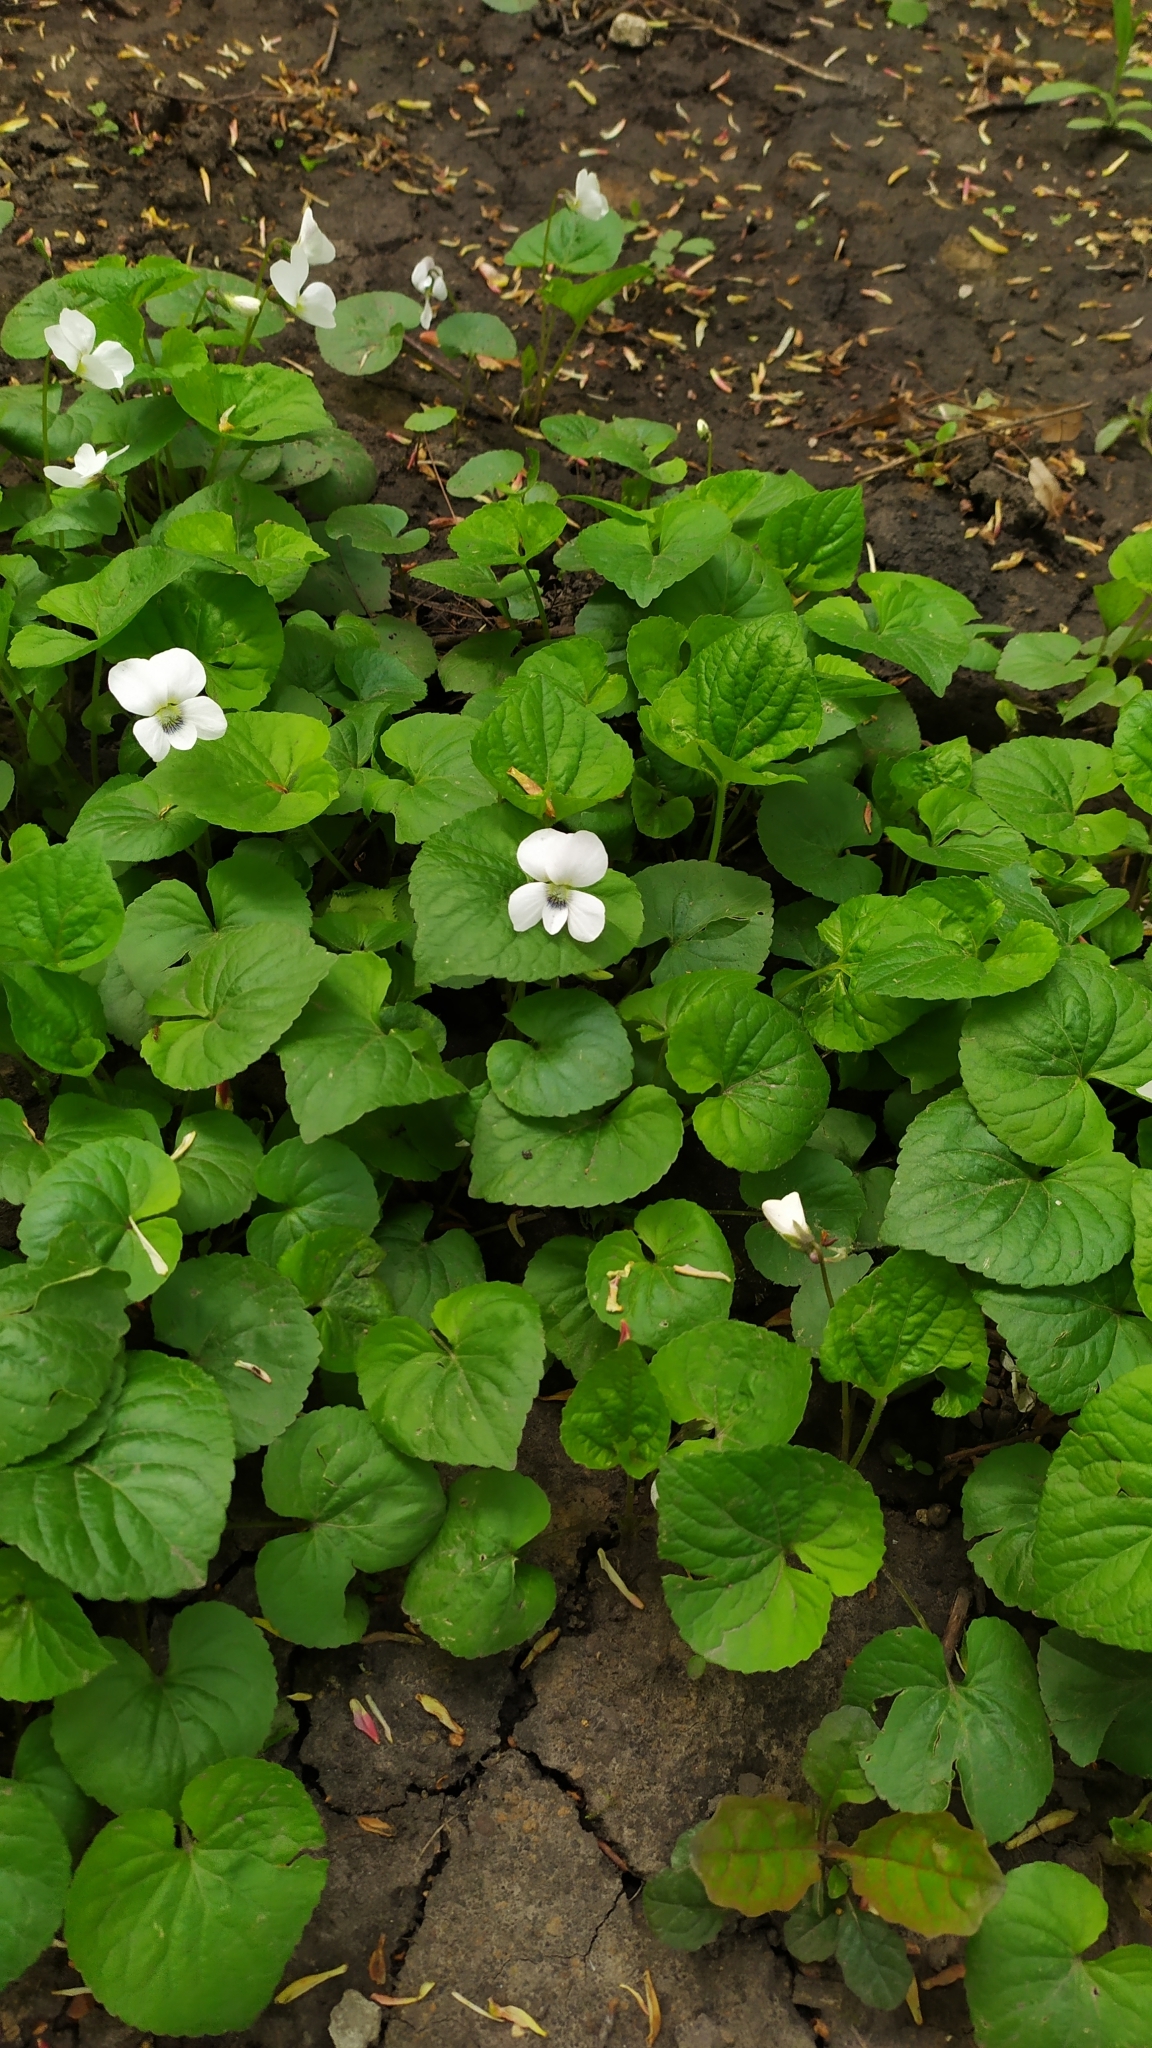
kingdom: Plantae
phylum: Tracheophyta
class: Magnoliopsida
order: Malpighiales
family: Violaceae
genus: Viola
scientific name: Viola sororia
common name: Dooryard violet
